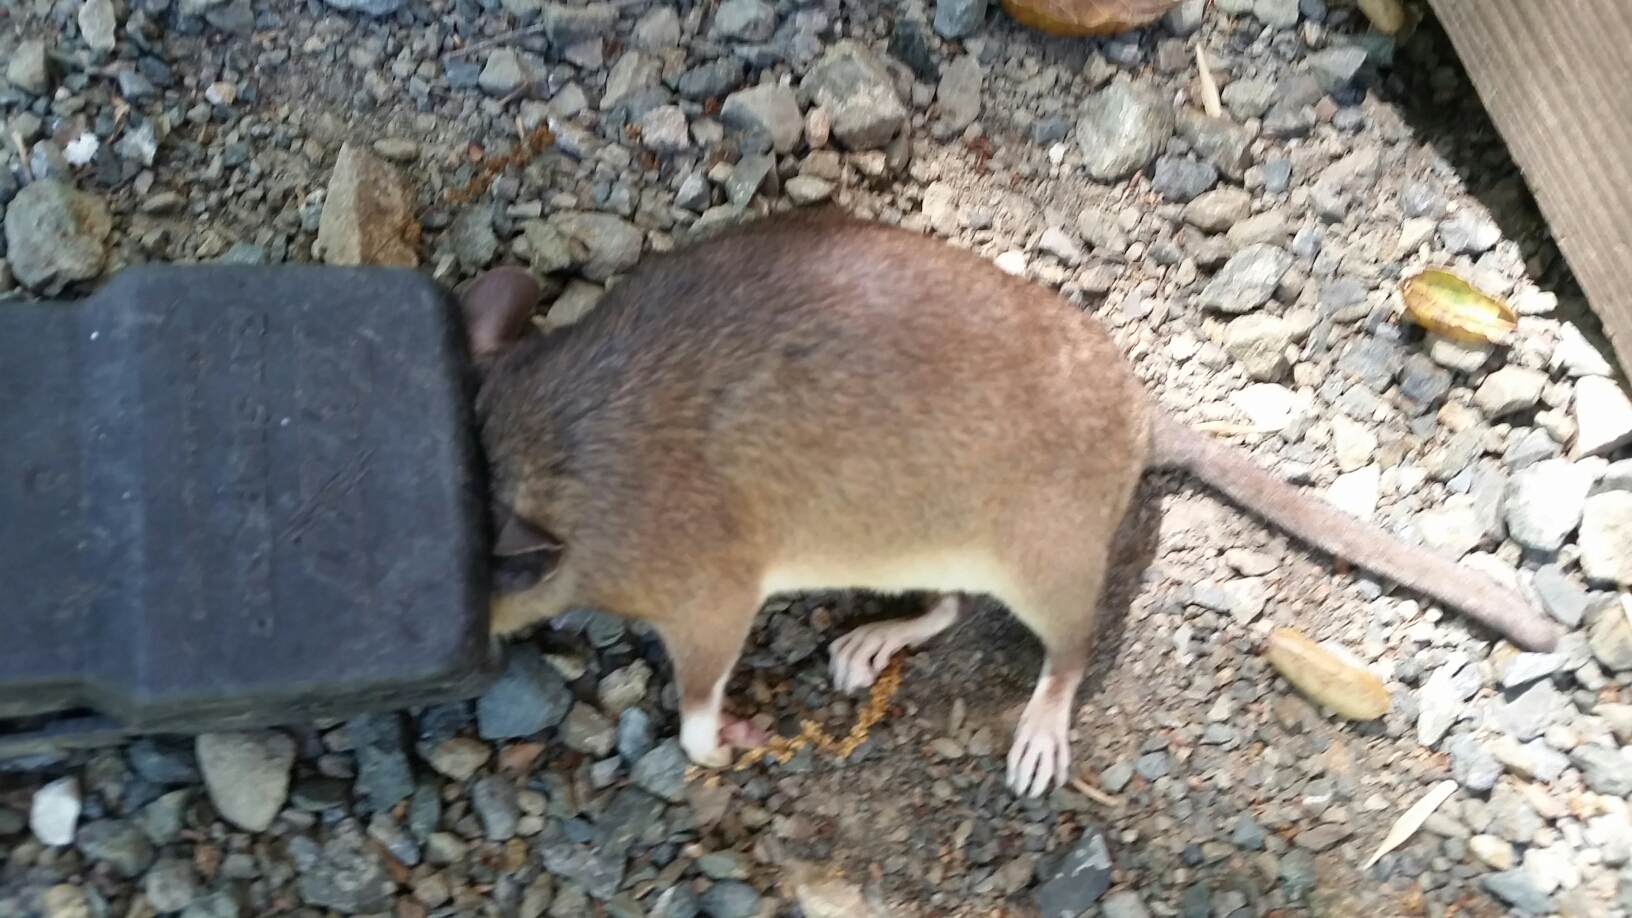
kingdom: Animalia
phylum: Chordata
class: Mammalia
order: Rodentia
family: Cricetidae
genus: Neotoma
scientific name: Neotoma fuscipes
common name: Dusky-footed woodrat
